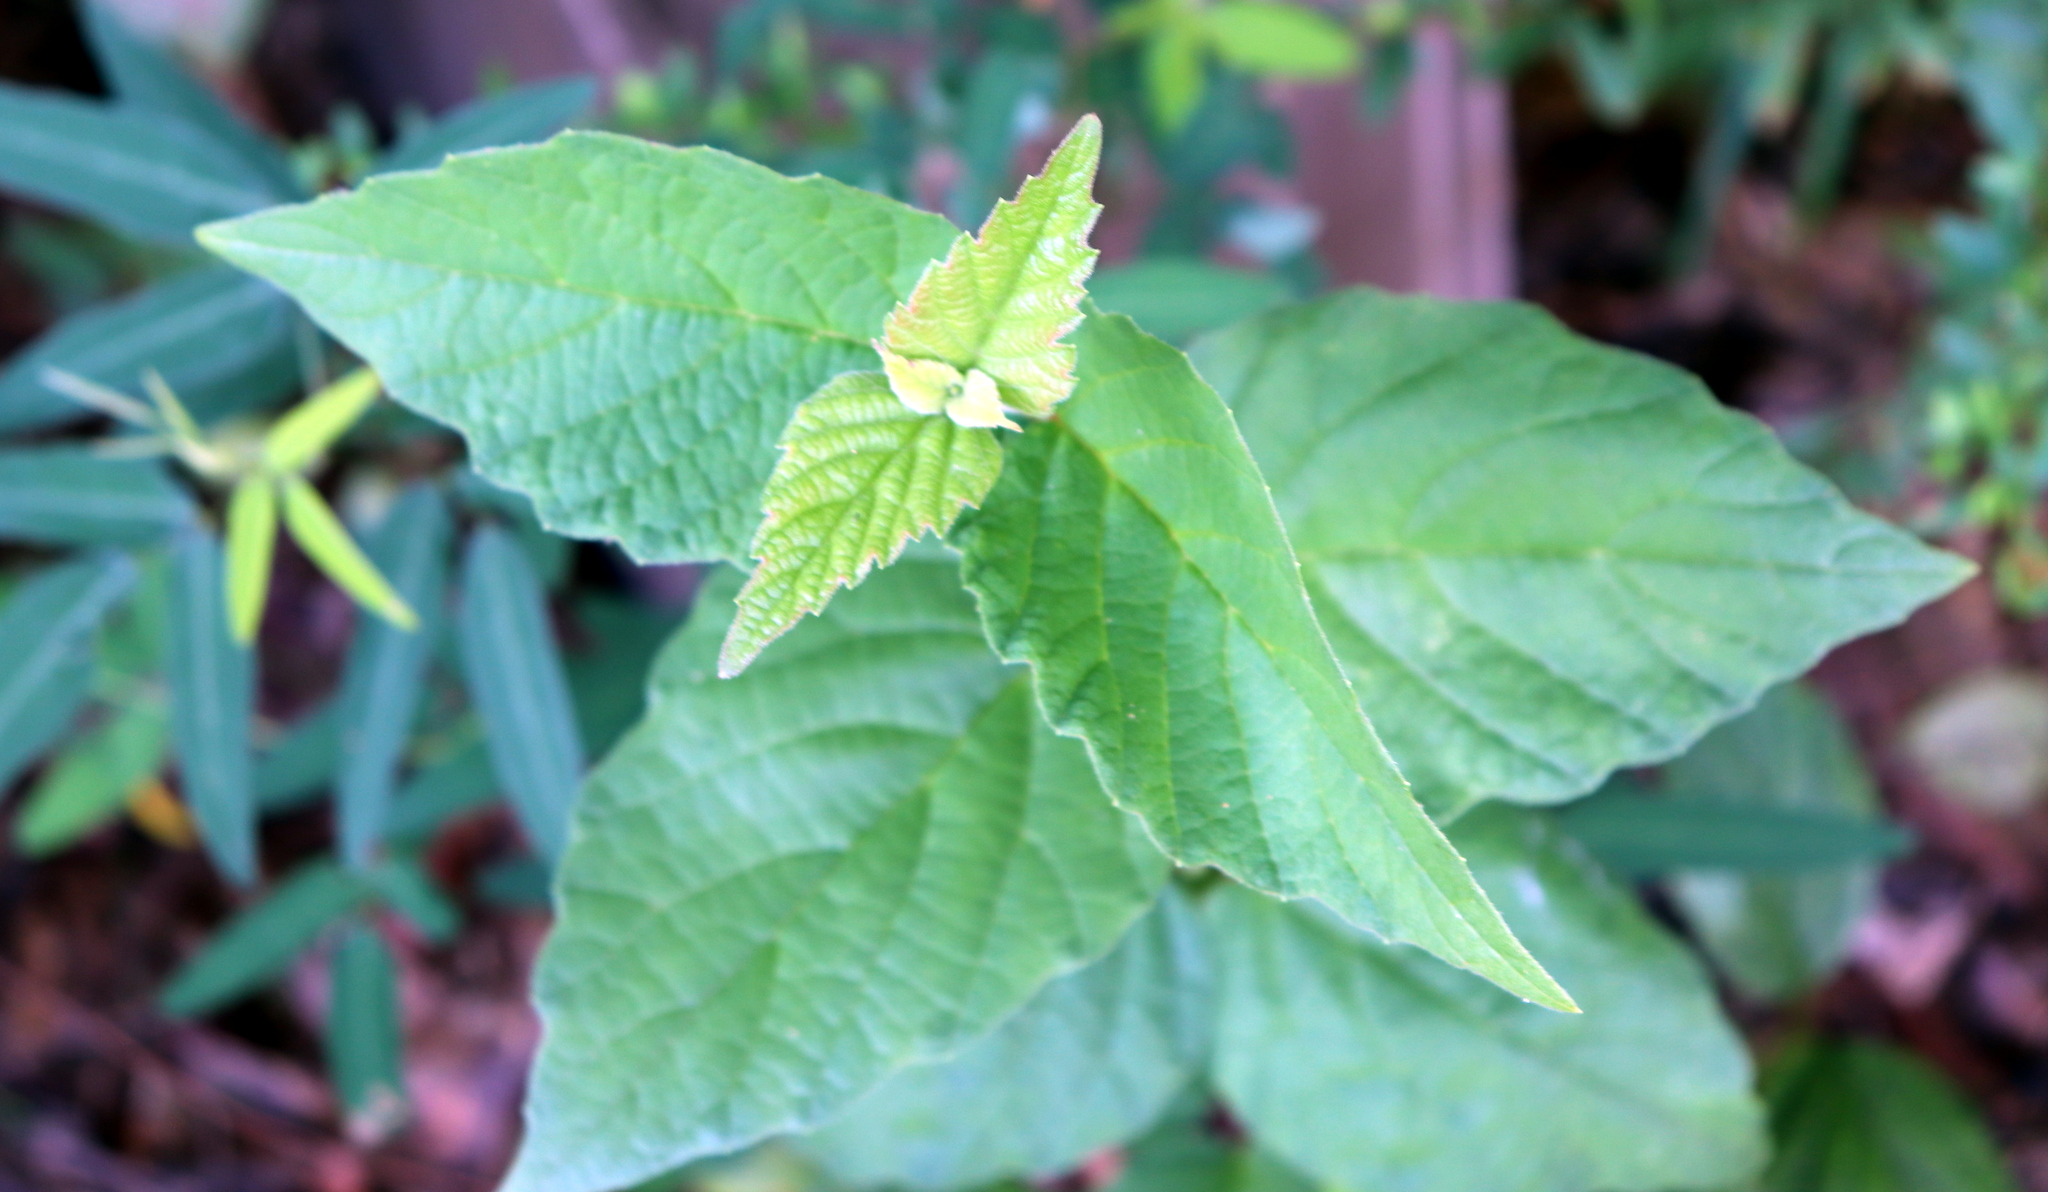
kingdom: Plantae
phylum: Tracheophyta
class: Magnoliopsida
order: Dipsacales
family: Viburnaceae
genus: Viburnum
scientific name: Viburnum scabrellum
